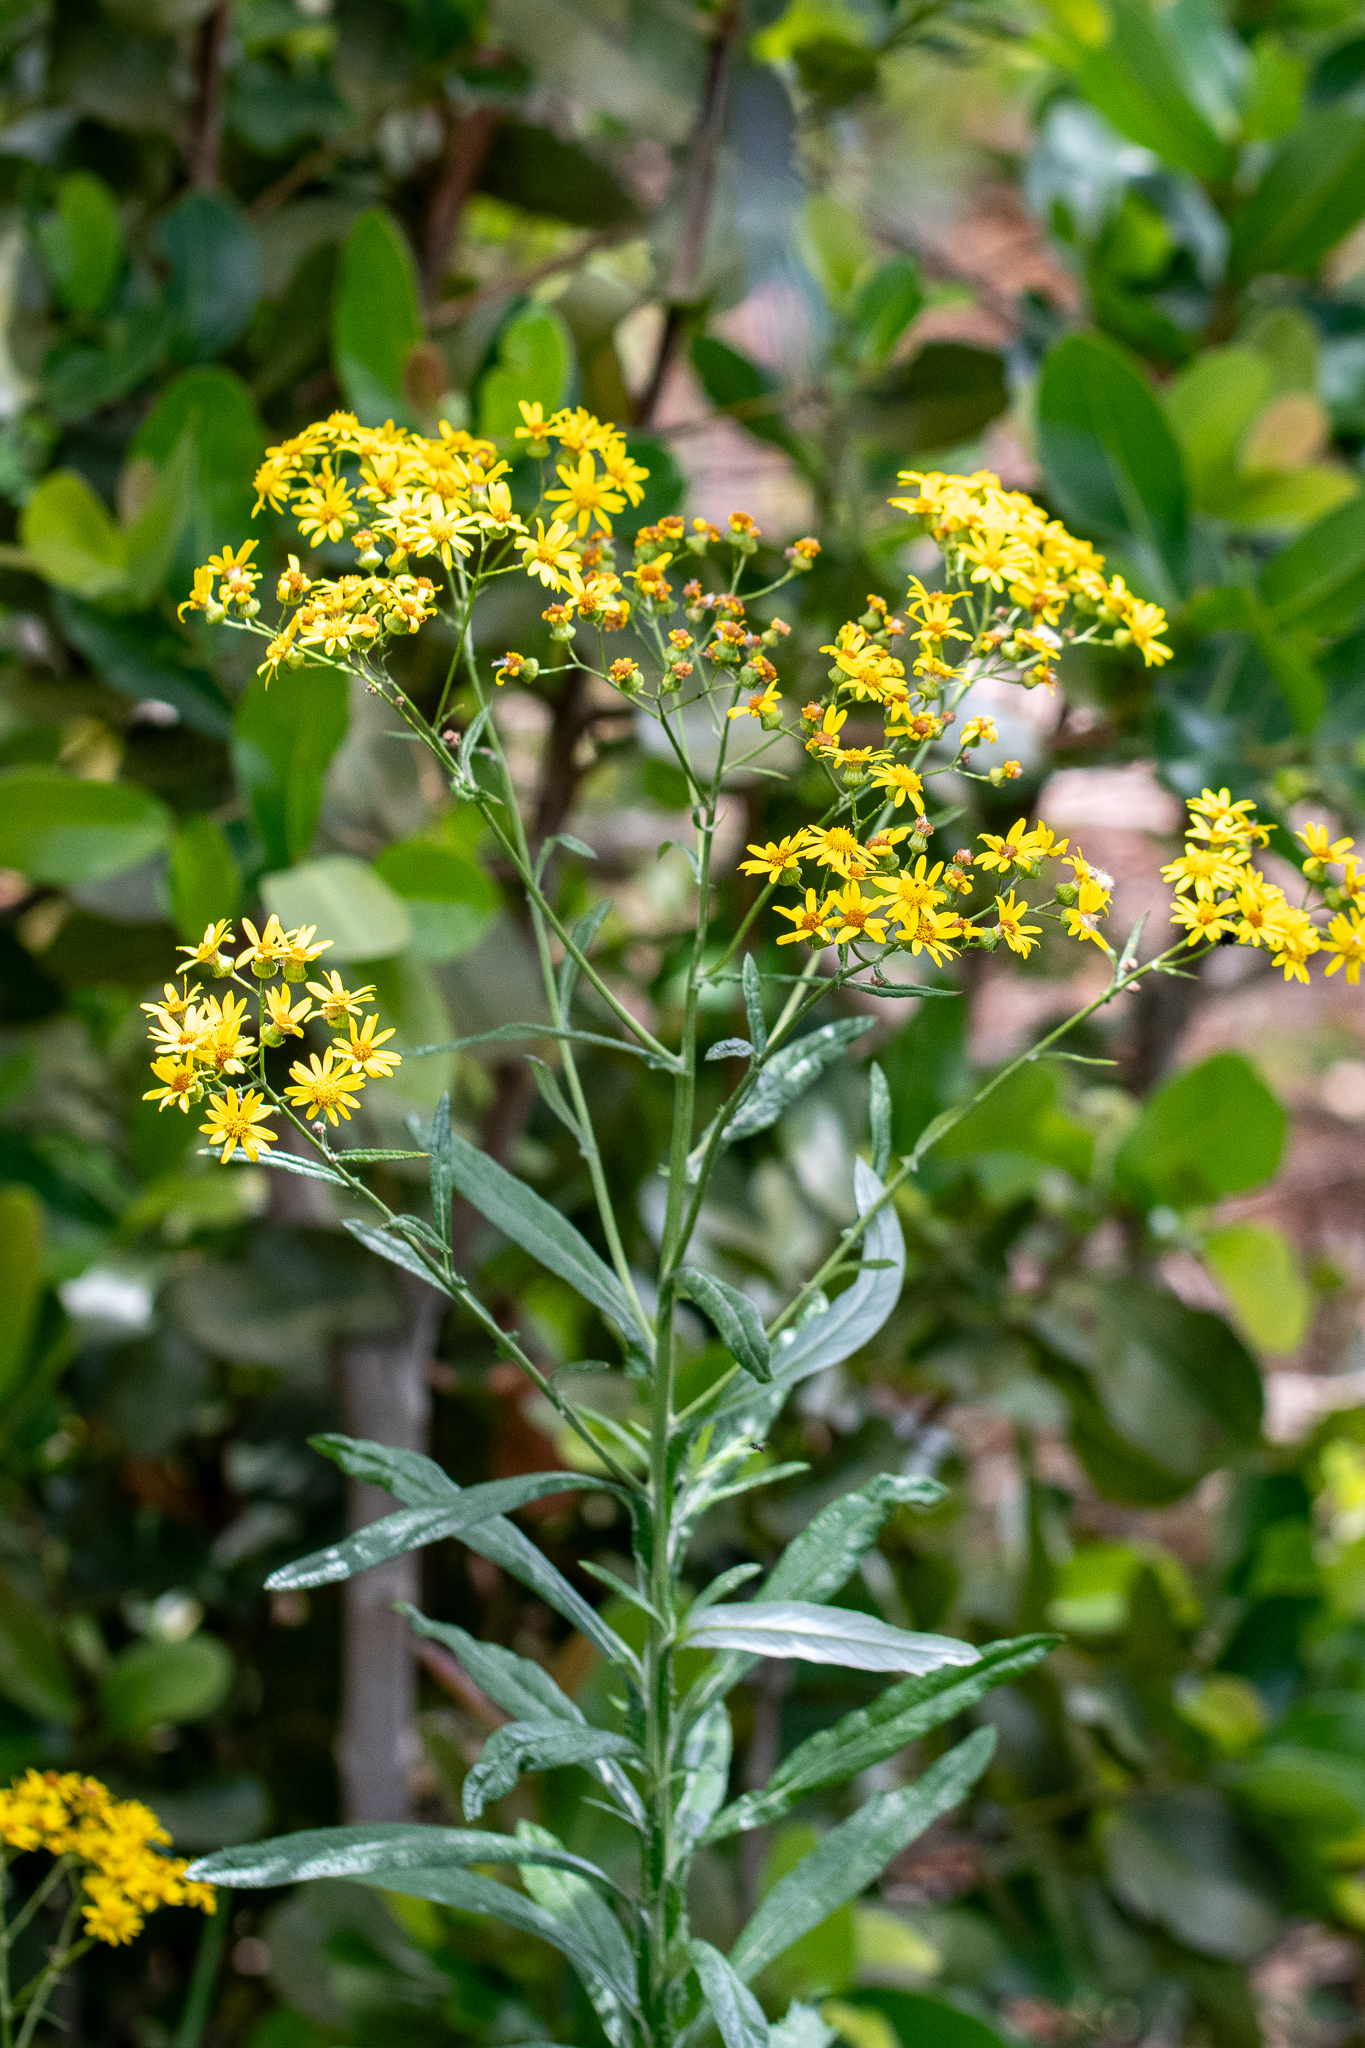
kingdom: Plantae
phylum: Tracheophyta
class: Magnoliopsida
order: Asterales
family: Asteraceae
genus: Senecio
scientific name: Senecio pterophorus
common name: Shoddy ragwort
